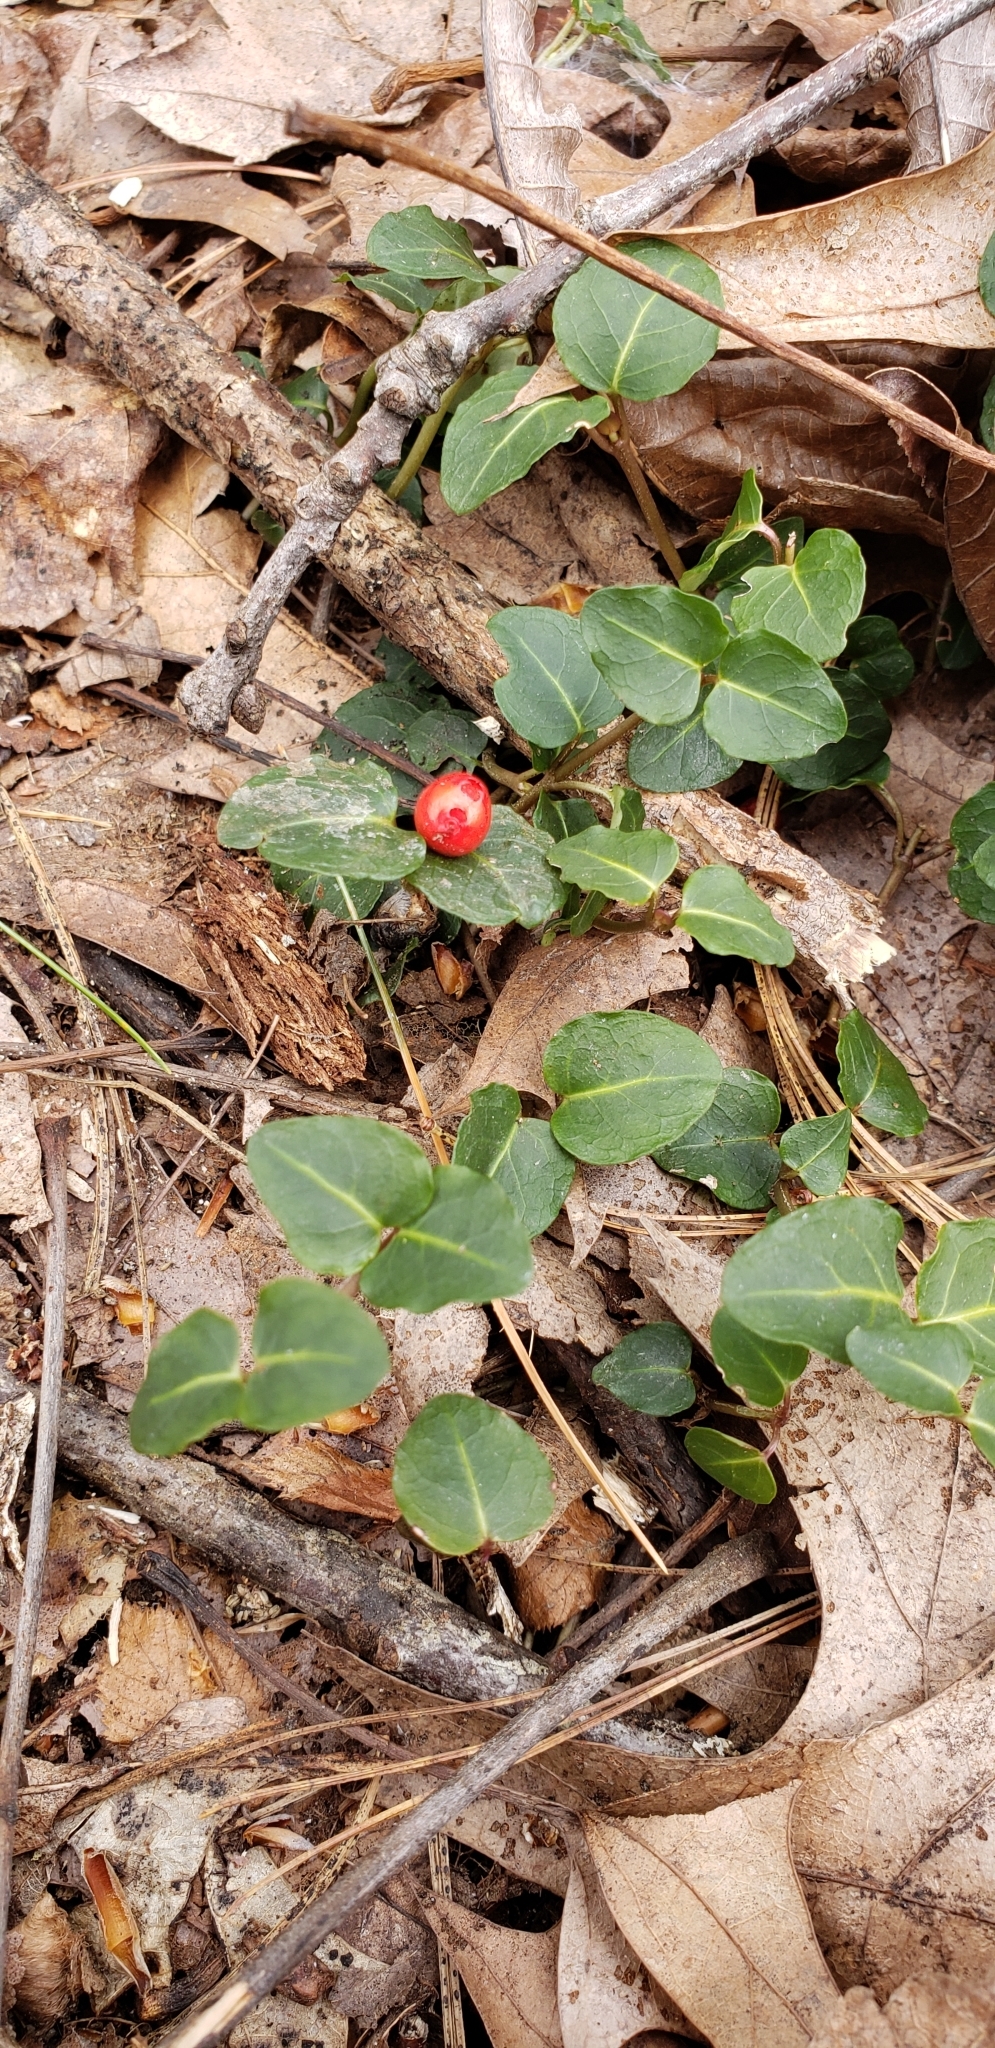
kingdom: Plantae
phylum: Tracheophyta
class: Magnoliopsida
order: Gentianales
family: Rubiaceae
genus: Mitchella
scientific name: Mitchella repens
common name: Partridge-berry
